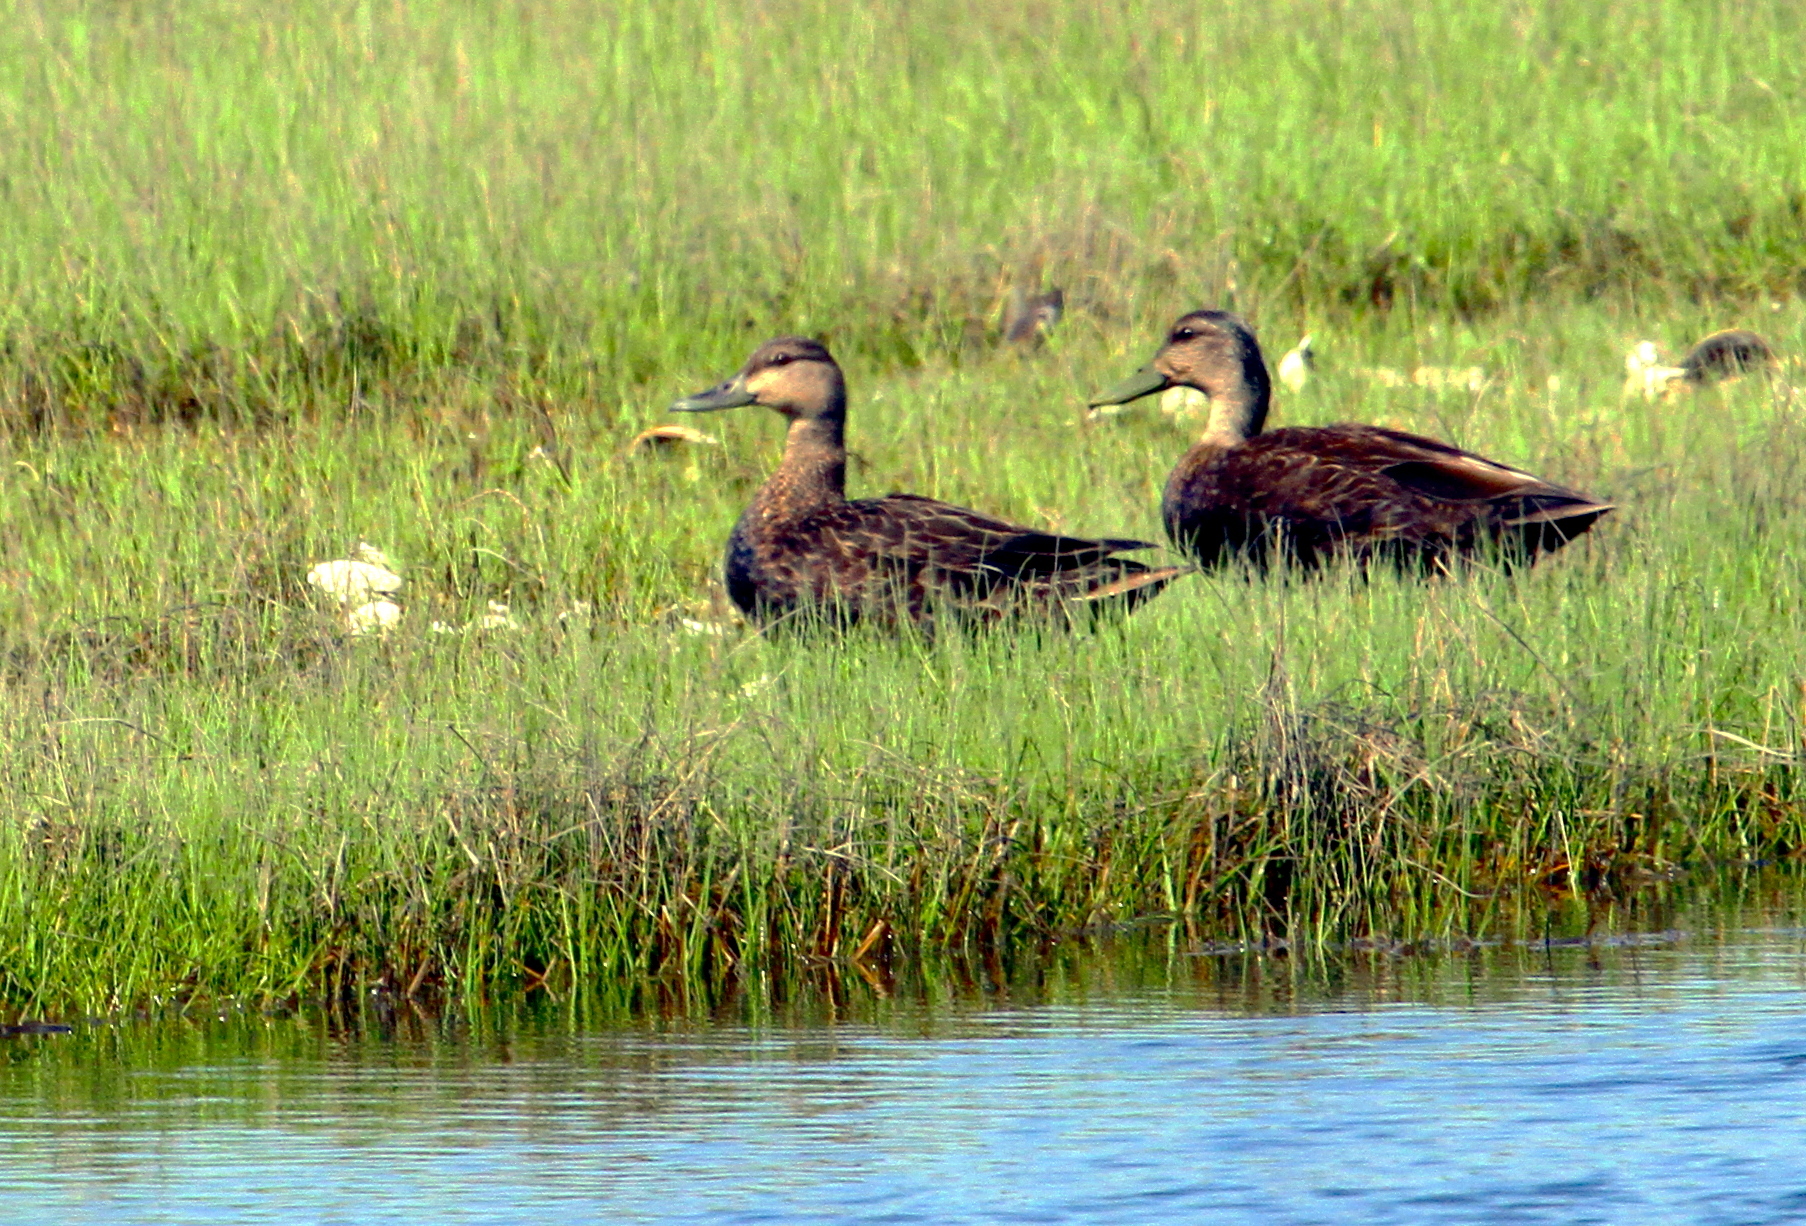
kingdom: Animalia
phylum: Chordata
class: Aves
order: Anseriformes
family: Anatidae
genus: Anas
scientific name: Anas rubripes
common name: American black duck
